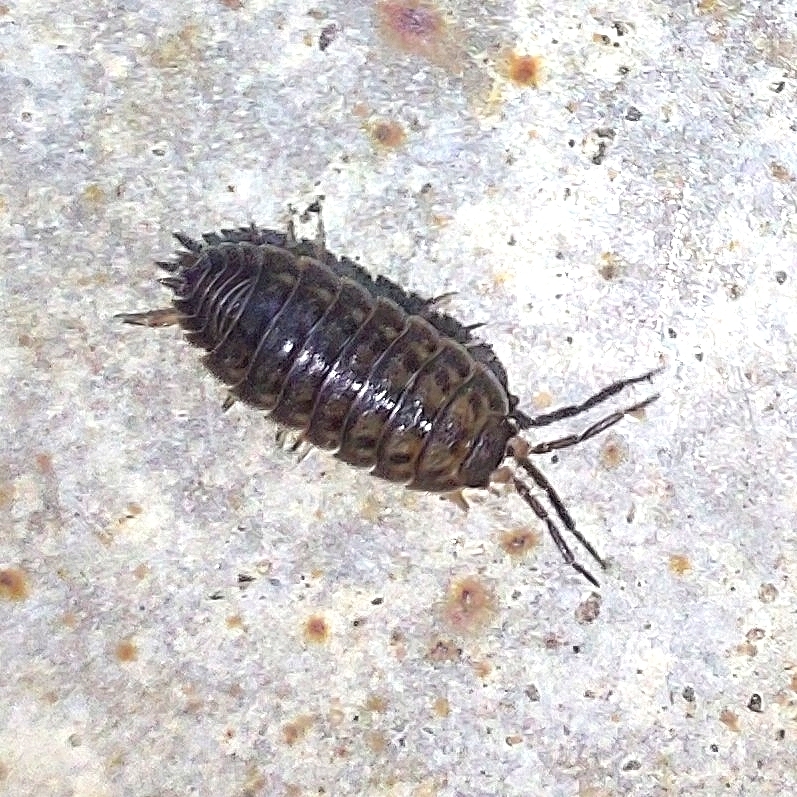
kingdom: Animalia
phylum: Arthropoda
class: Malacostraca
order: Isopoda
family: Trachelipodidae
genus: Trachelipus
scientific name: Trachelipus rathkii
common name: Isopod
